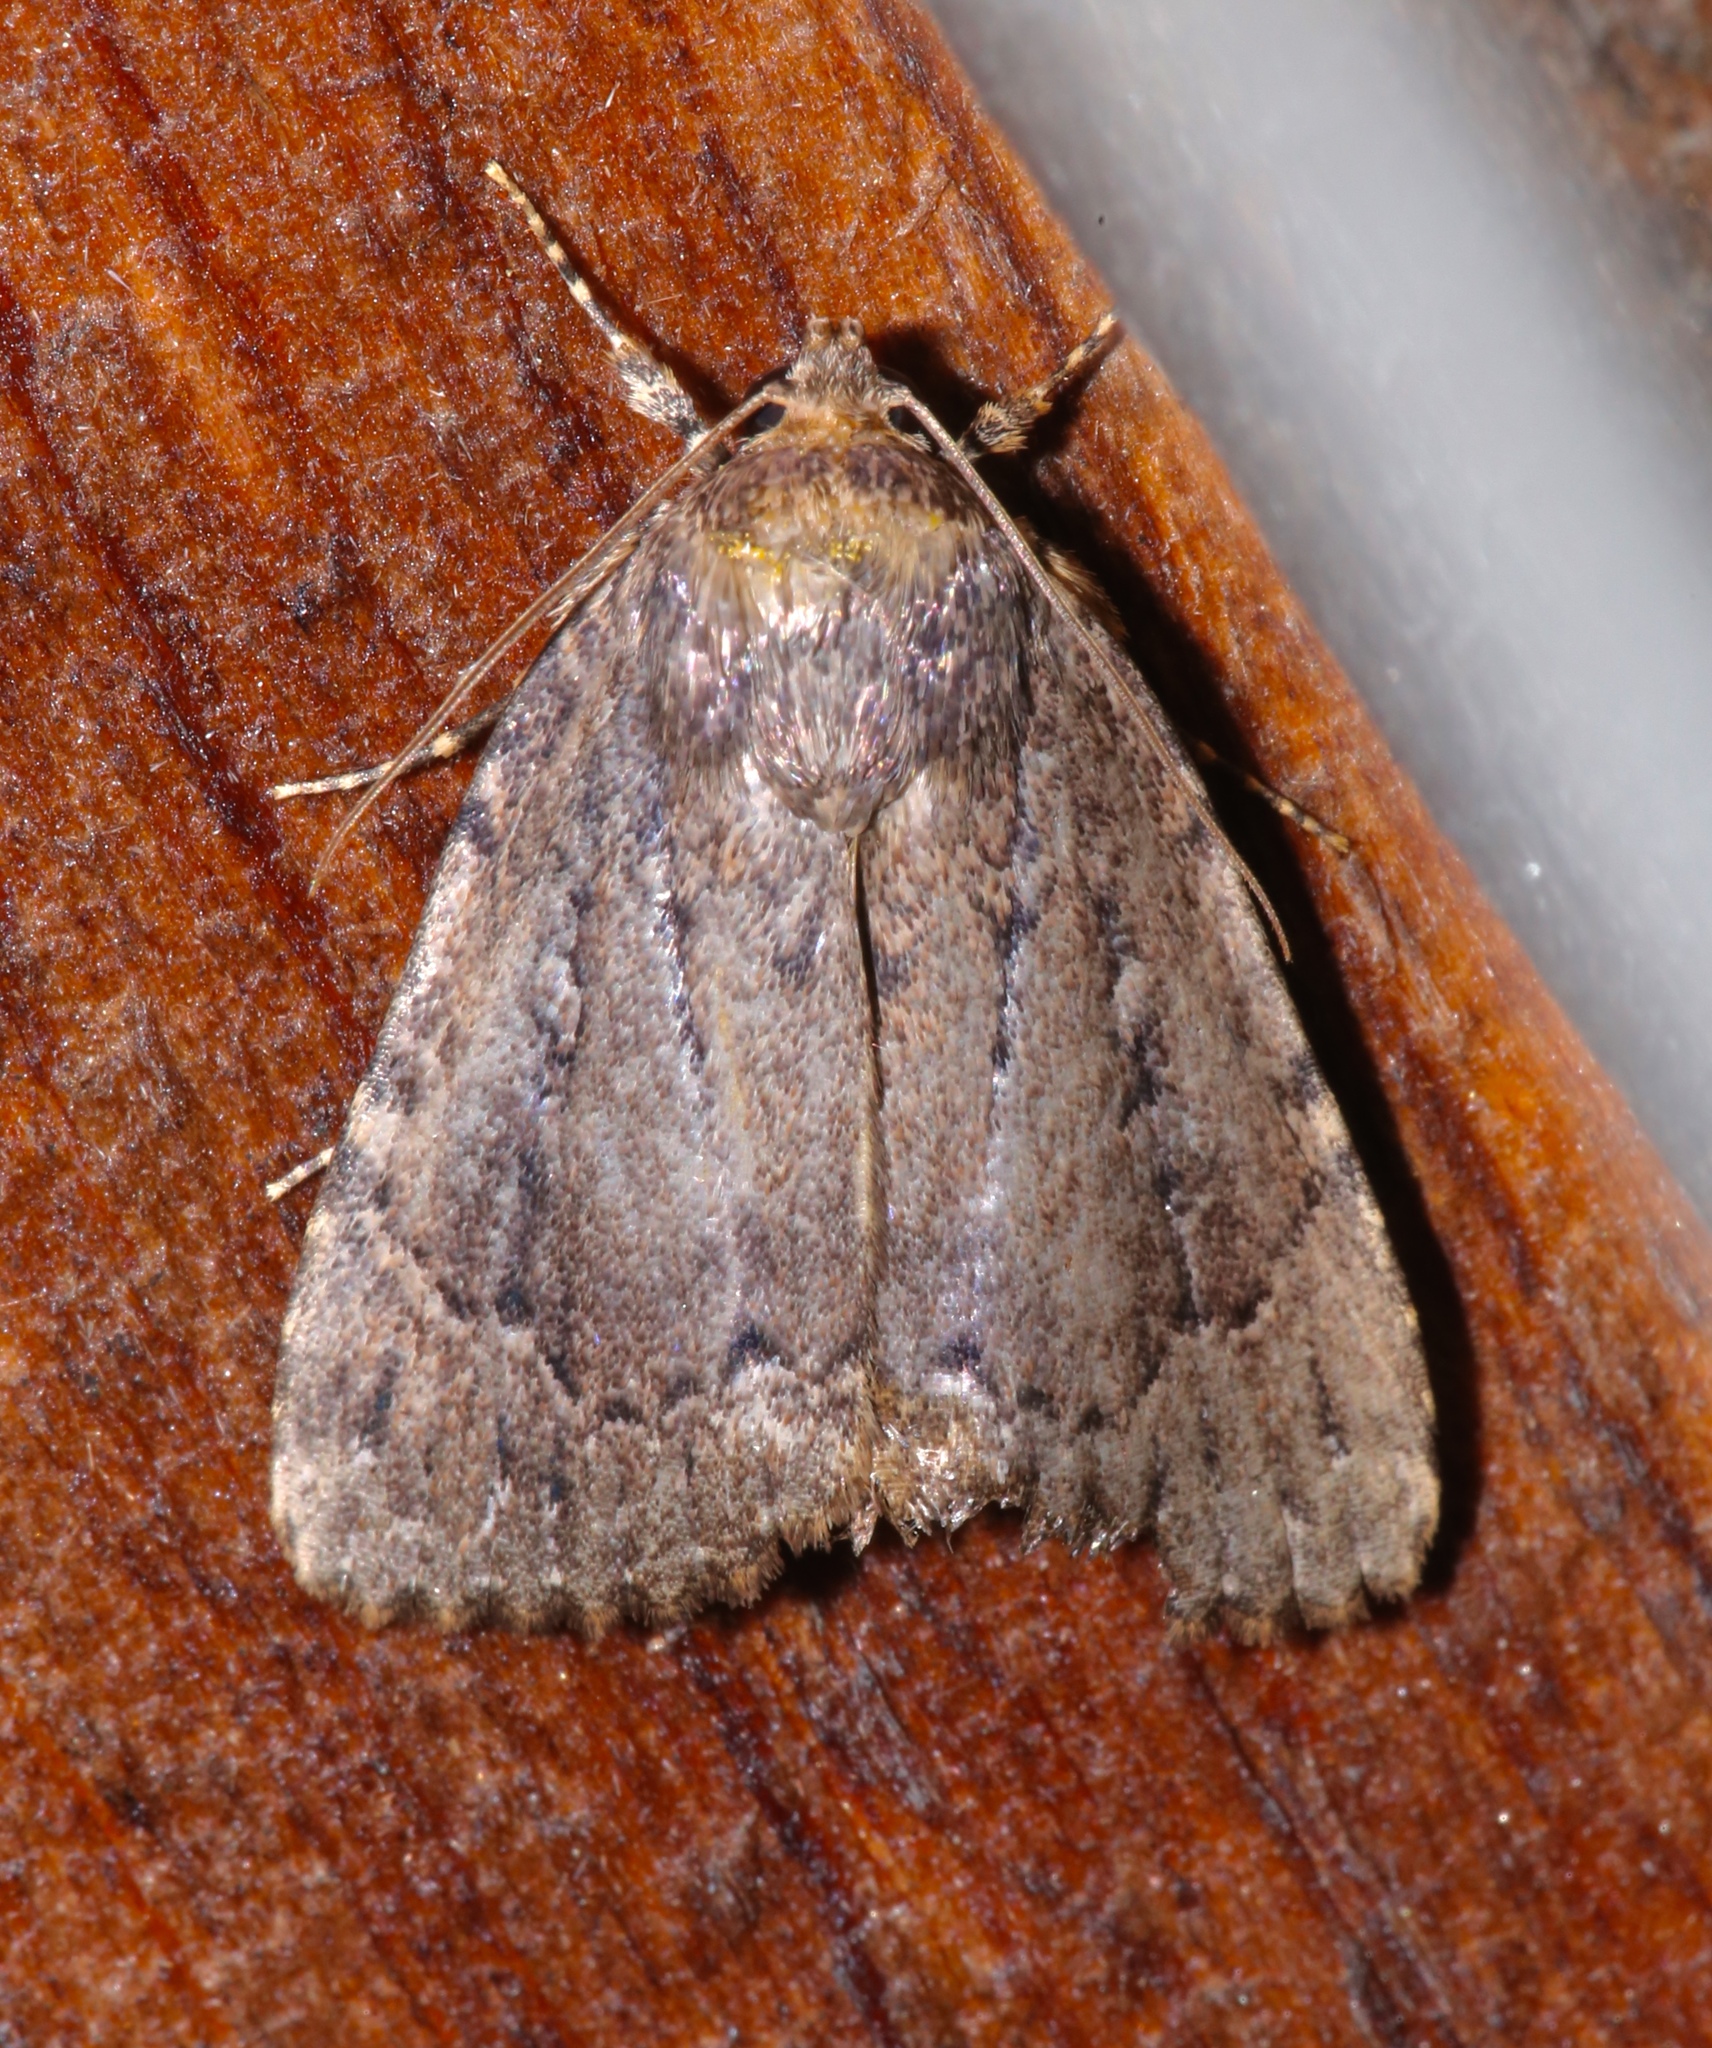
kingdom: Animalia
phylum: Arthropoda
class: Insecta
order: Lepidoptera
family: Noctuidae
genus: Amphipyra
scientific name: Amphipyra pyramidoides
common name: American copper underwing
